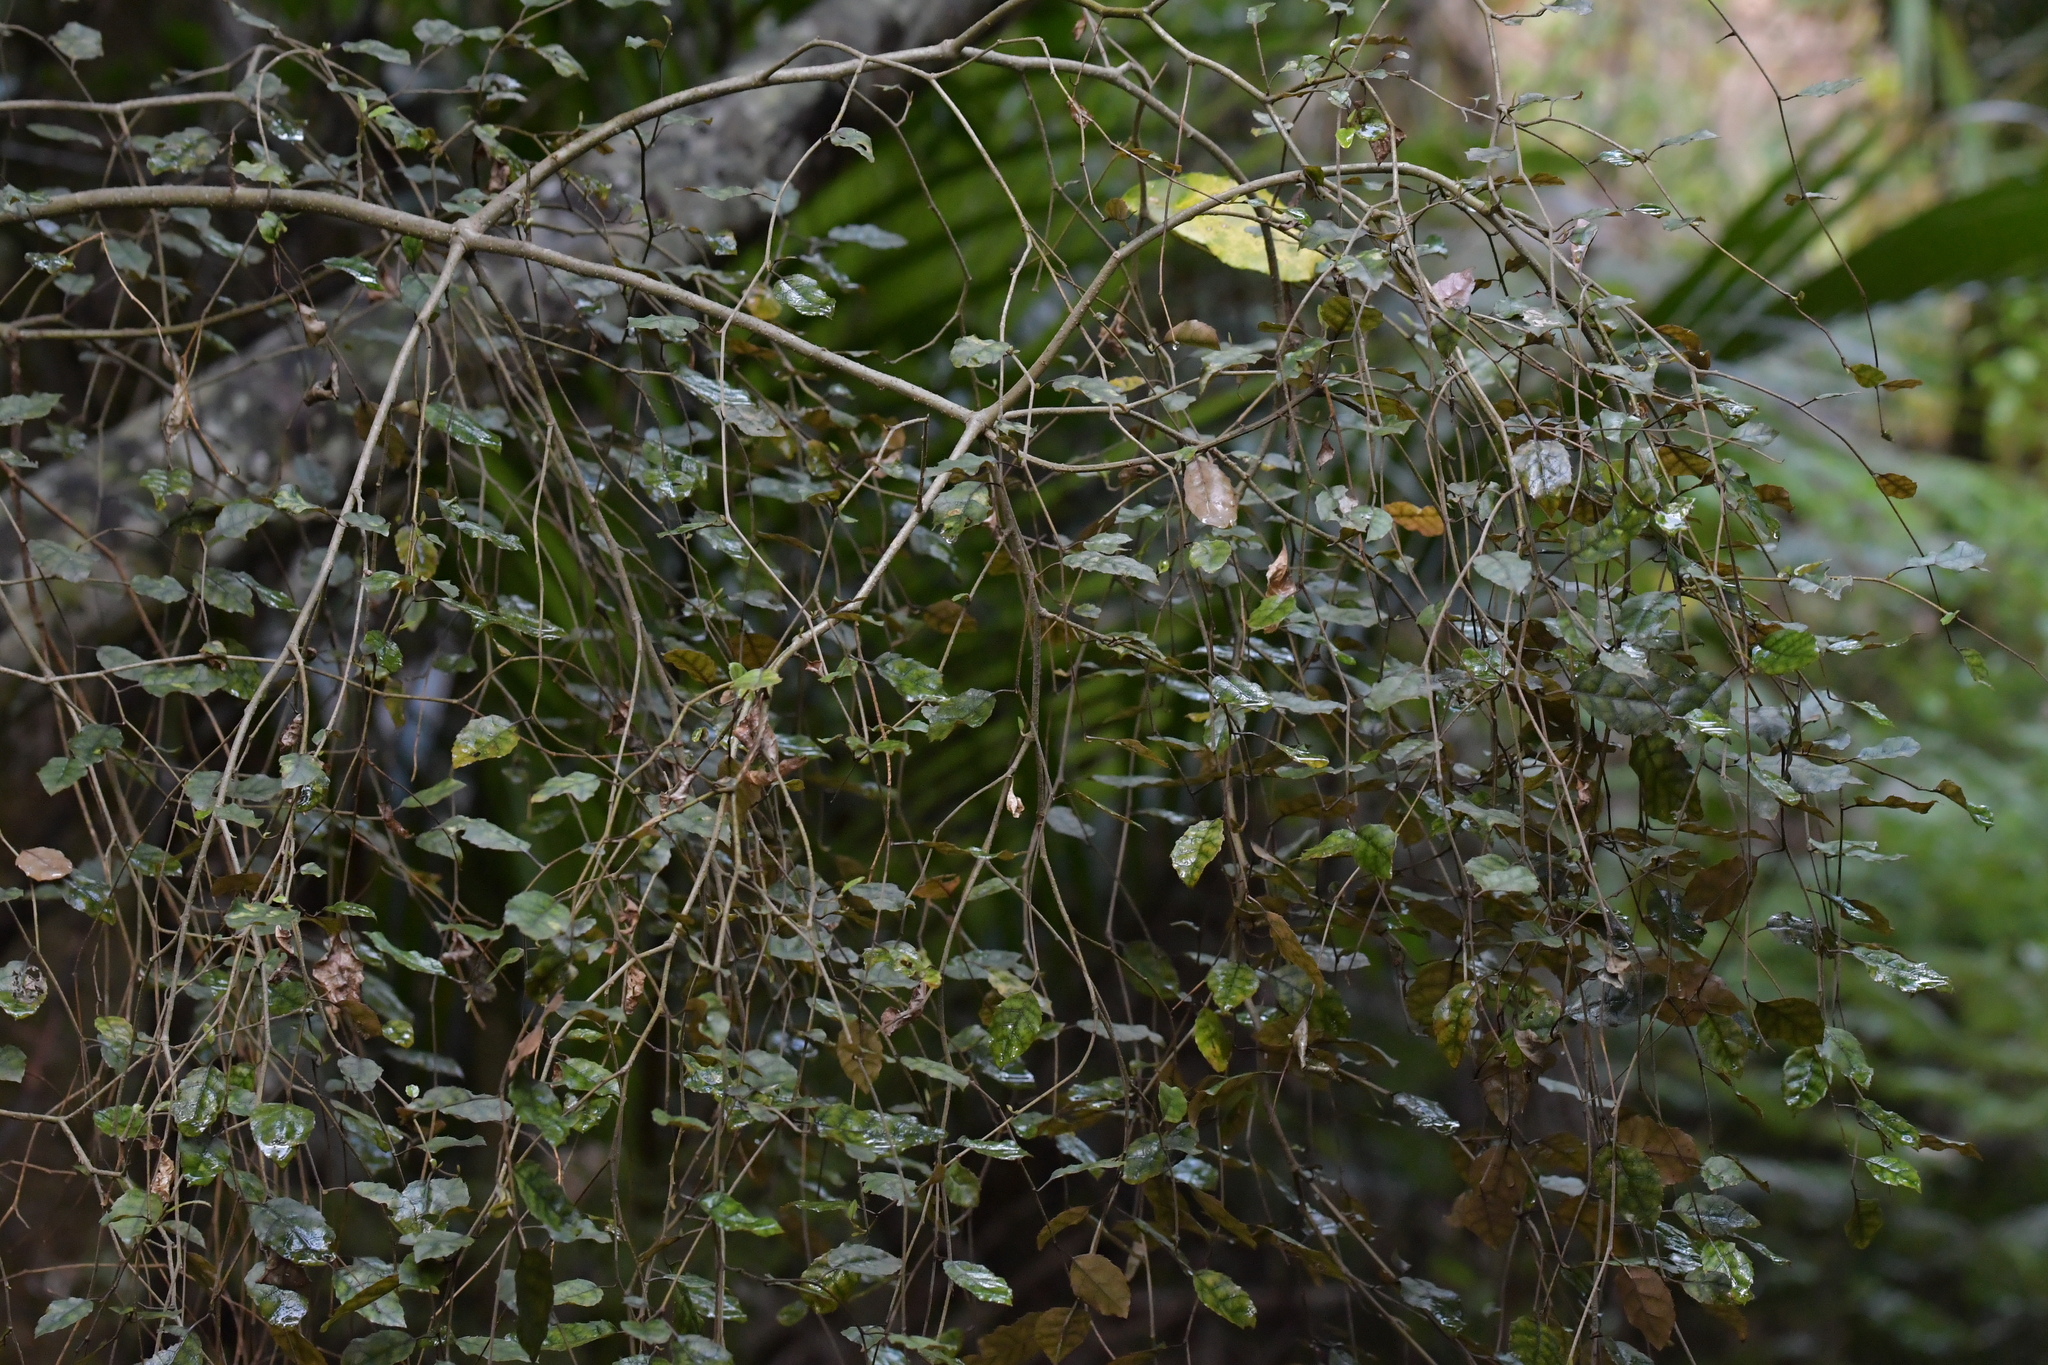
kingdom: Plantae
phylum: Tracheophyta
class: Magnoliopsida
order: Asterales
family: Rousseaceae
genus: Carpodetus
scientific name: Carpodetus serratus
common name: White mapau
